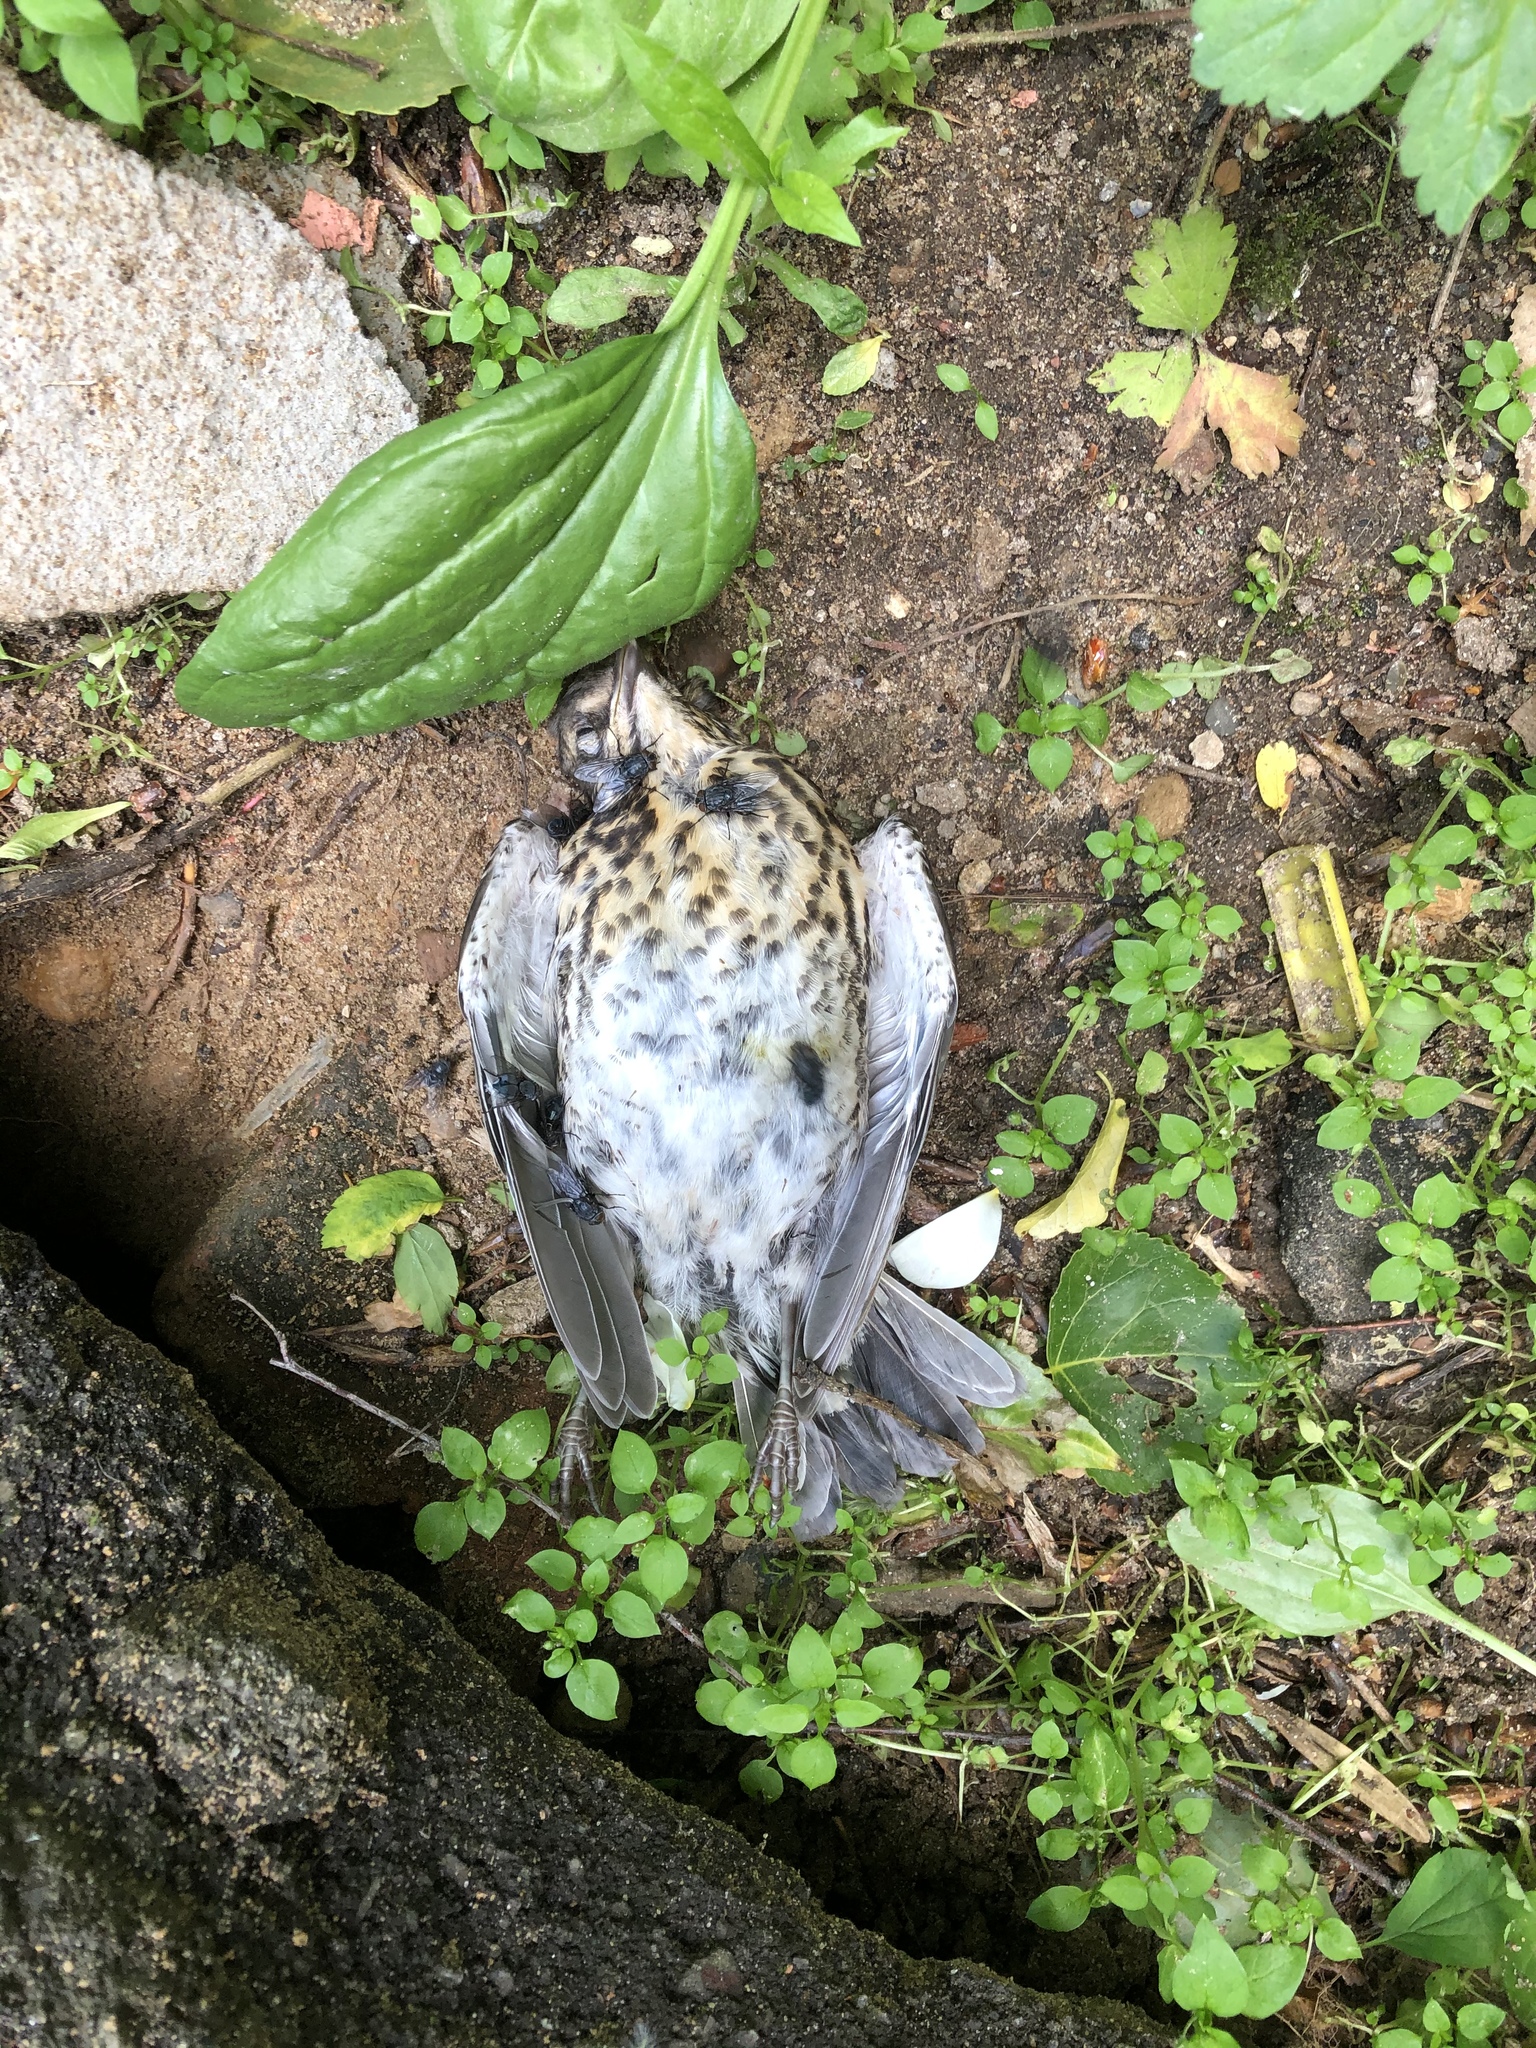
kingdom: Animalia
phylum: Chordata
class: Aves
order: Passeriformes
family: Turdidae
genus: Turdus
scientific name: Turdus pilaris
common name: Fieldfare
